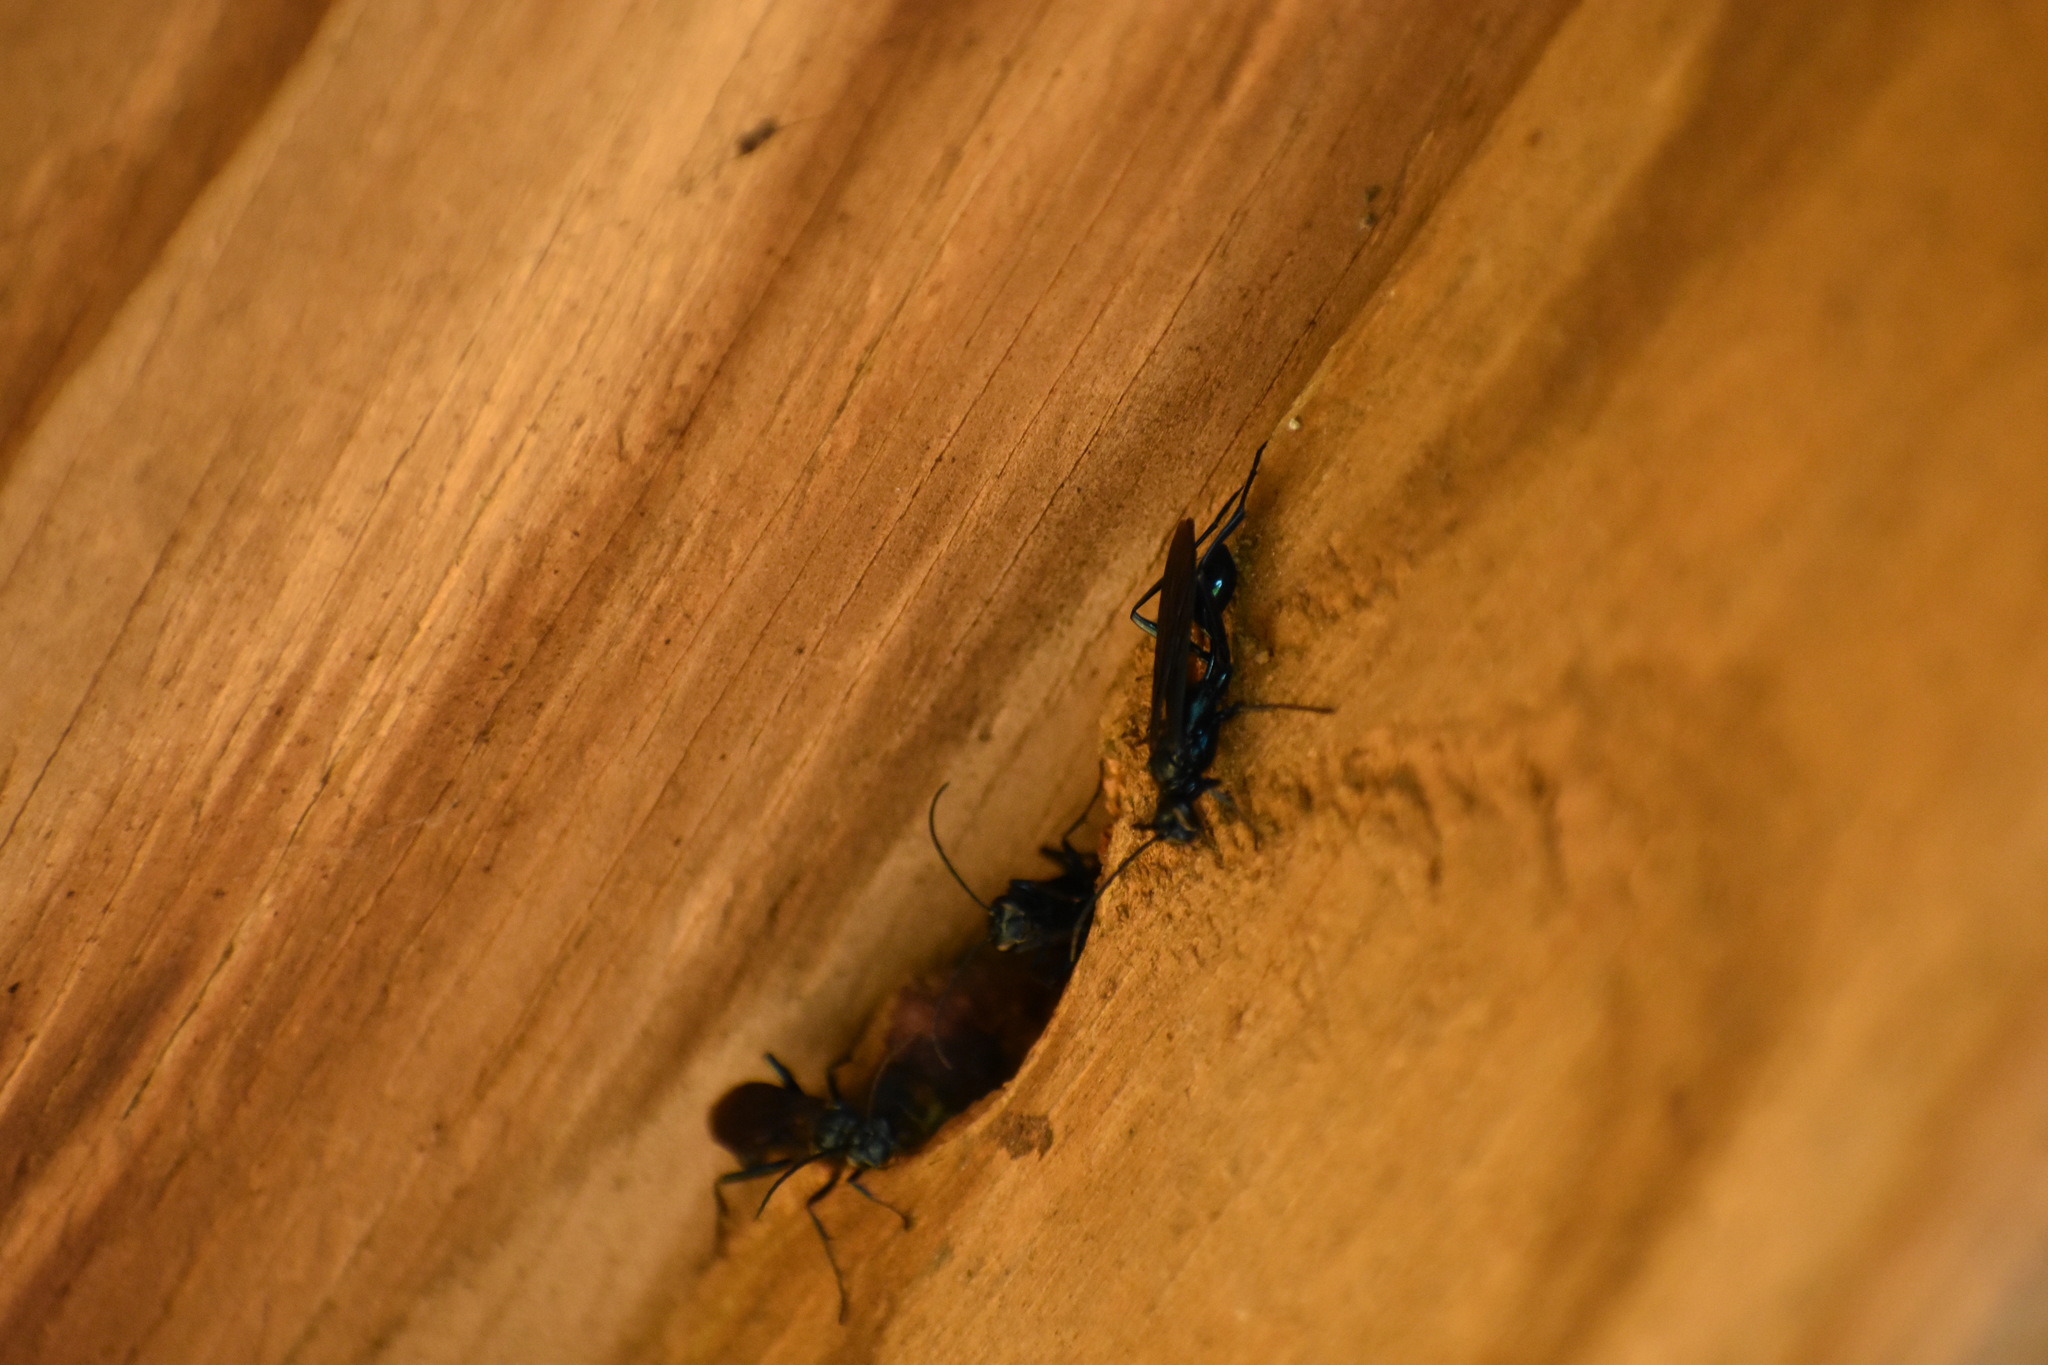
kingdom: Animalia
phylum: Arthropoda
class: Insecta
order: Hymenoptera
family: Sphecidae
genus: Chalybion
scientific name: Chalybion californicum
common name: Mud dauber
